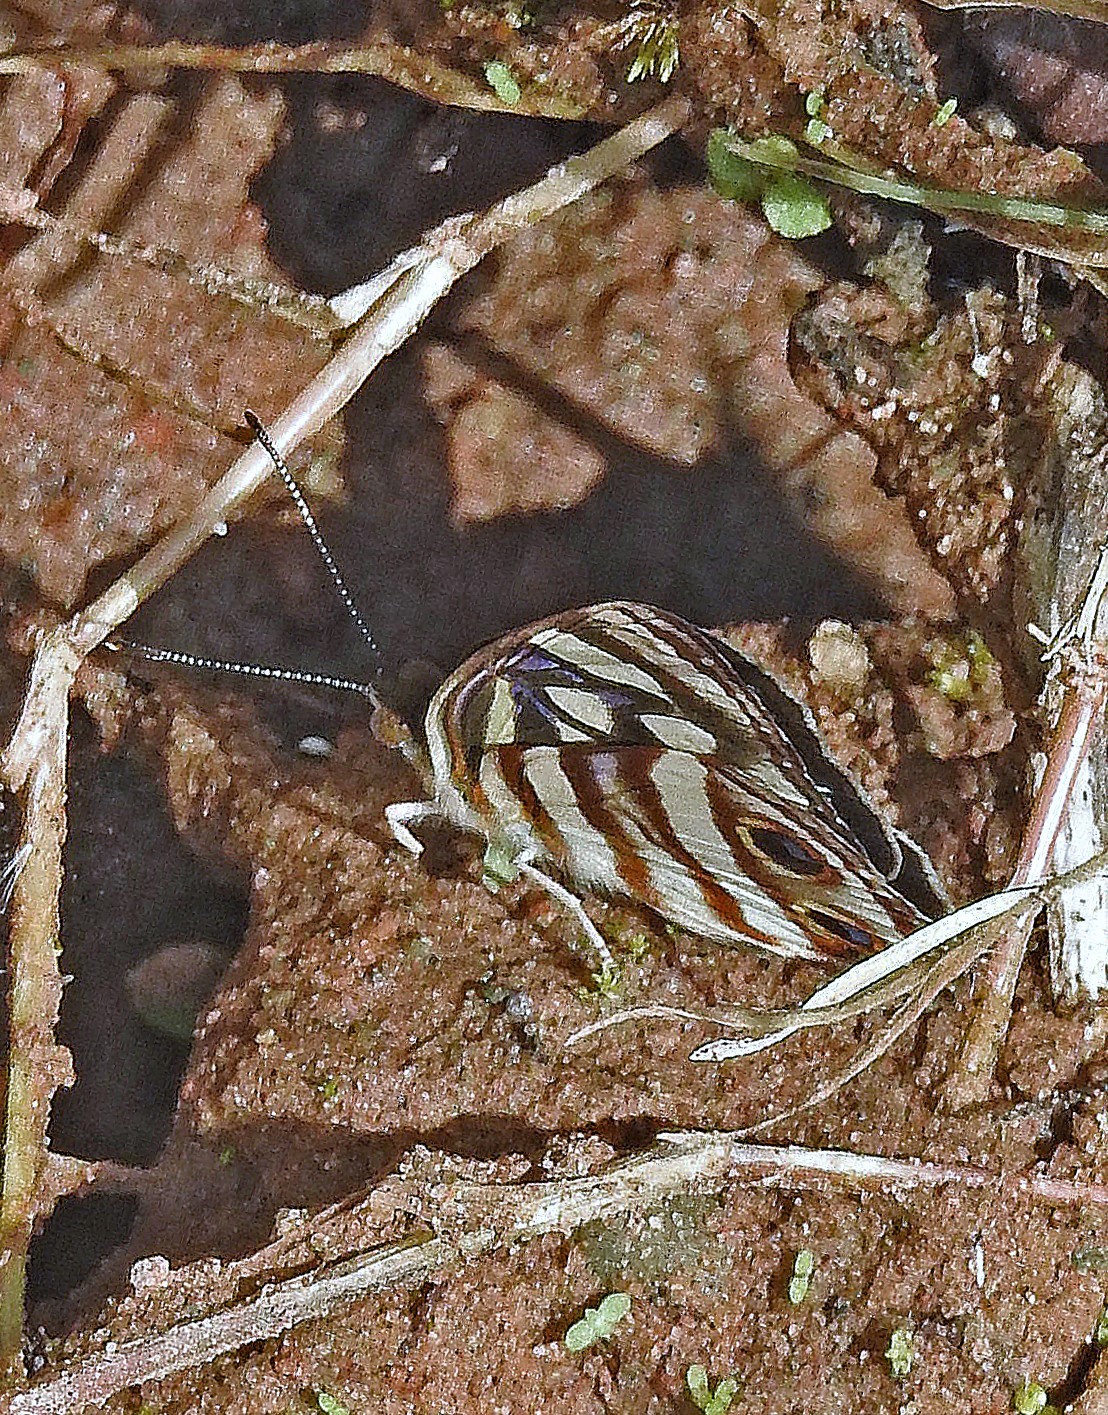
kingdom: Animalia
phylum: Arthropoda
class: Insecta
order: Lepidoptera
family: Nymphalidae
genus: Dynamine
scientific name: Dynamine mylitta
